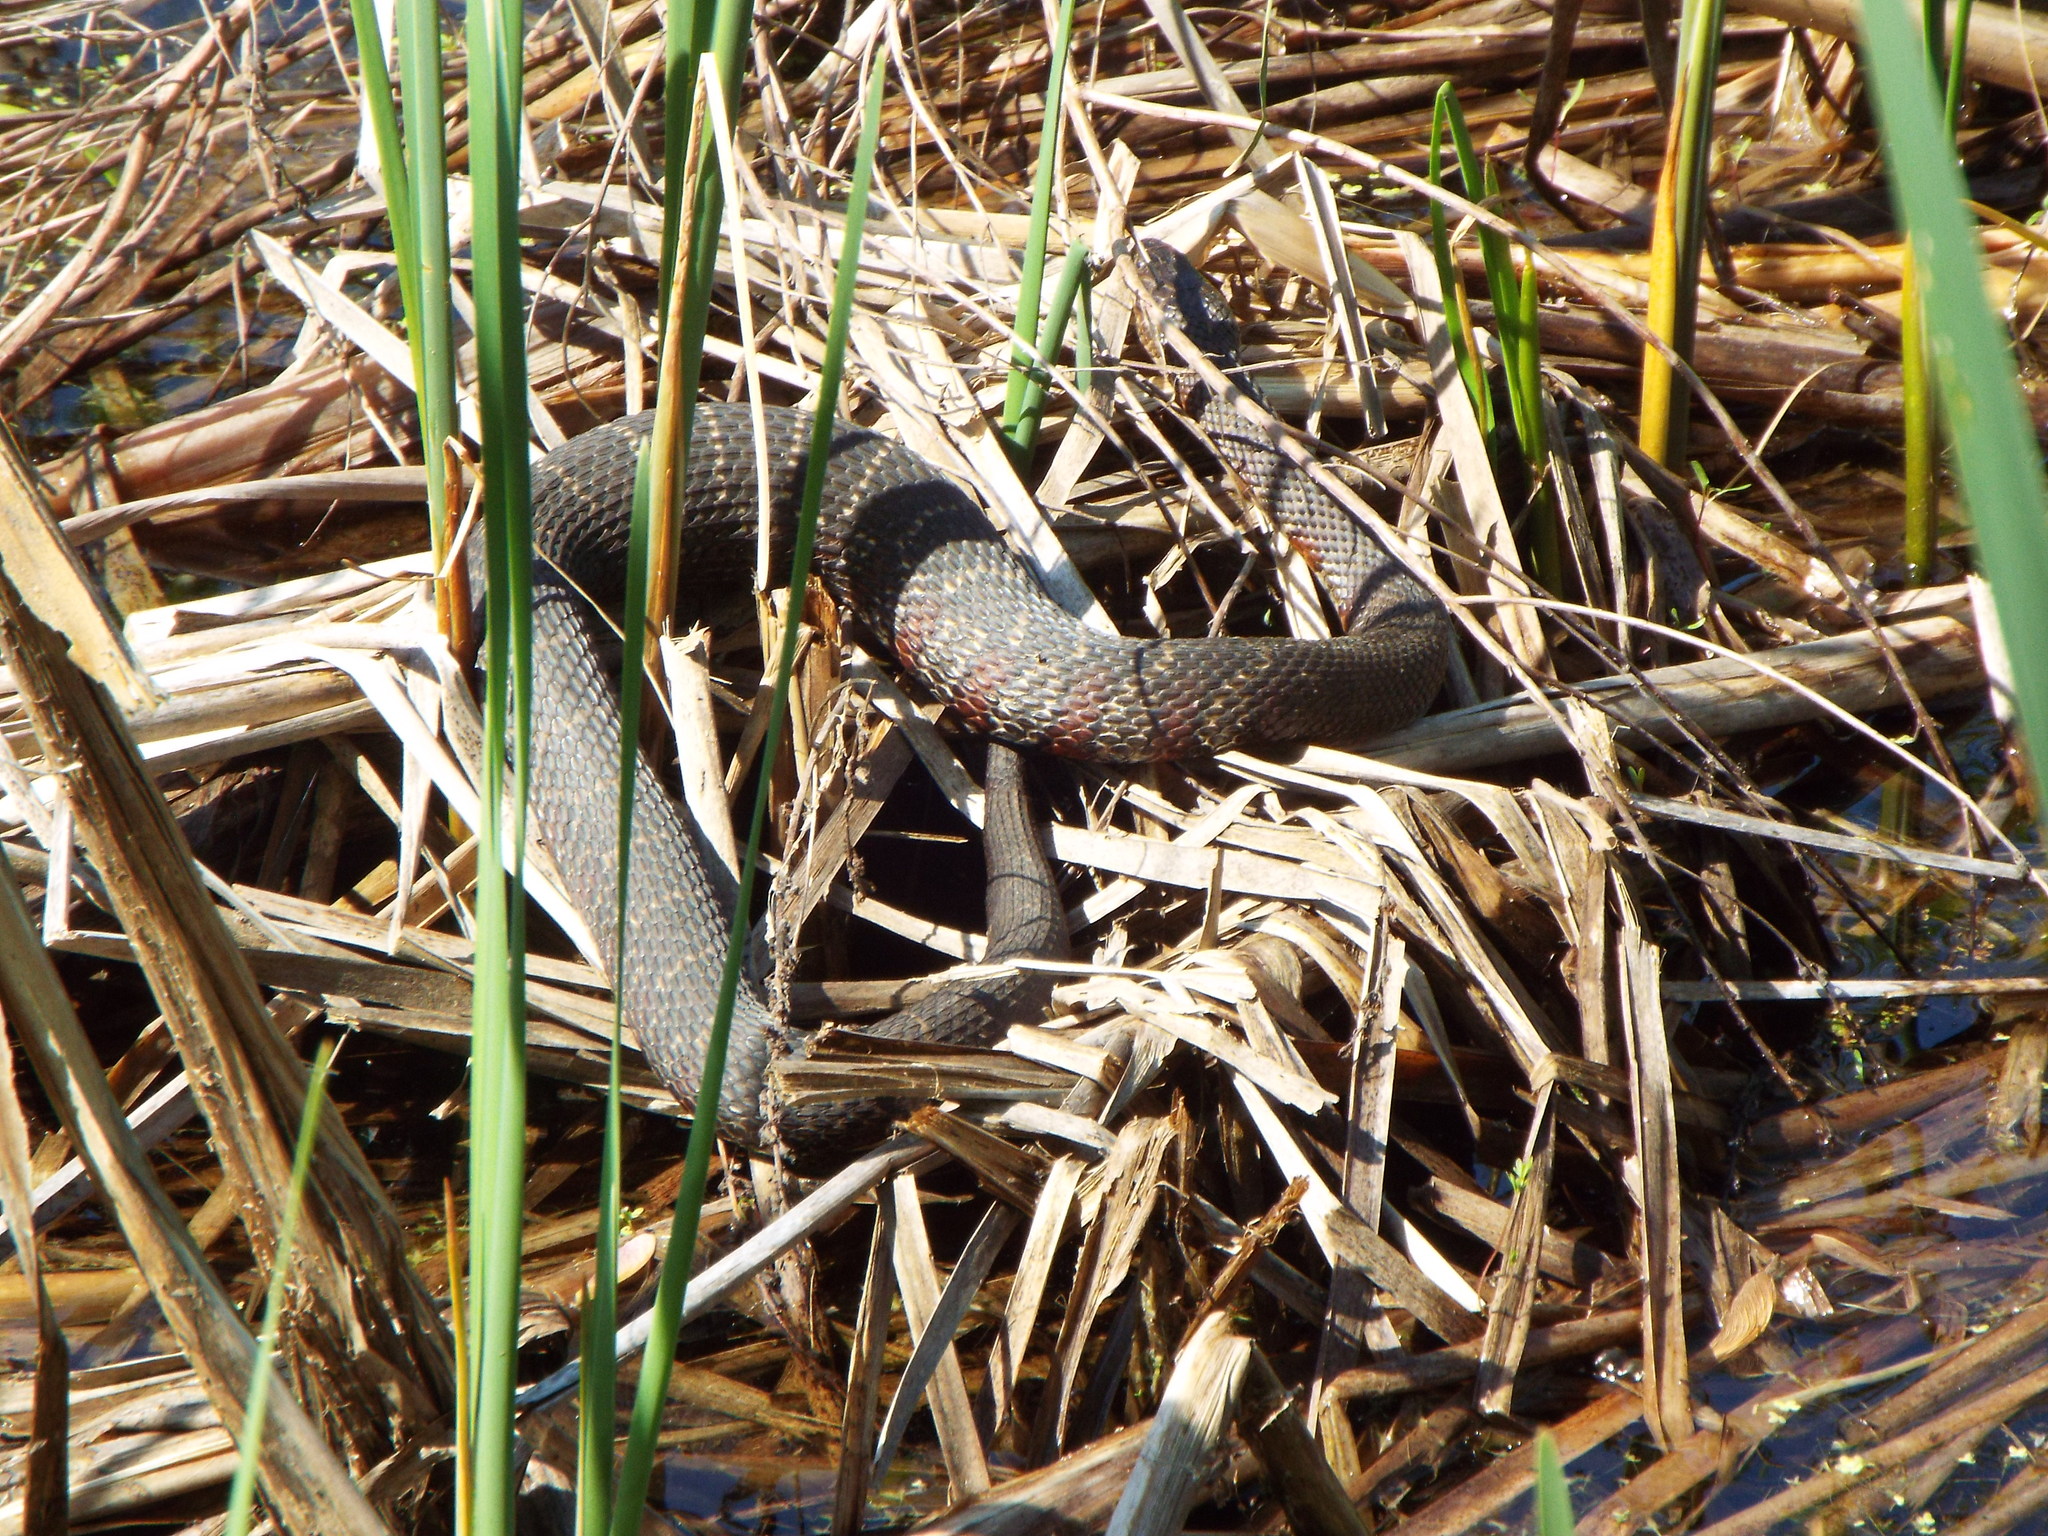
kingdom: Animalia
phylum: Chordata
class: Squamata
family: Colubridae
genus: Nerodia
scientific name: Nerodia sipedon
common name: Northern water snake
